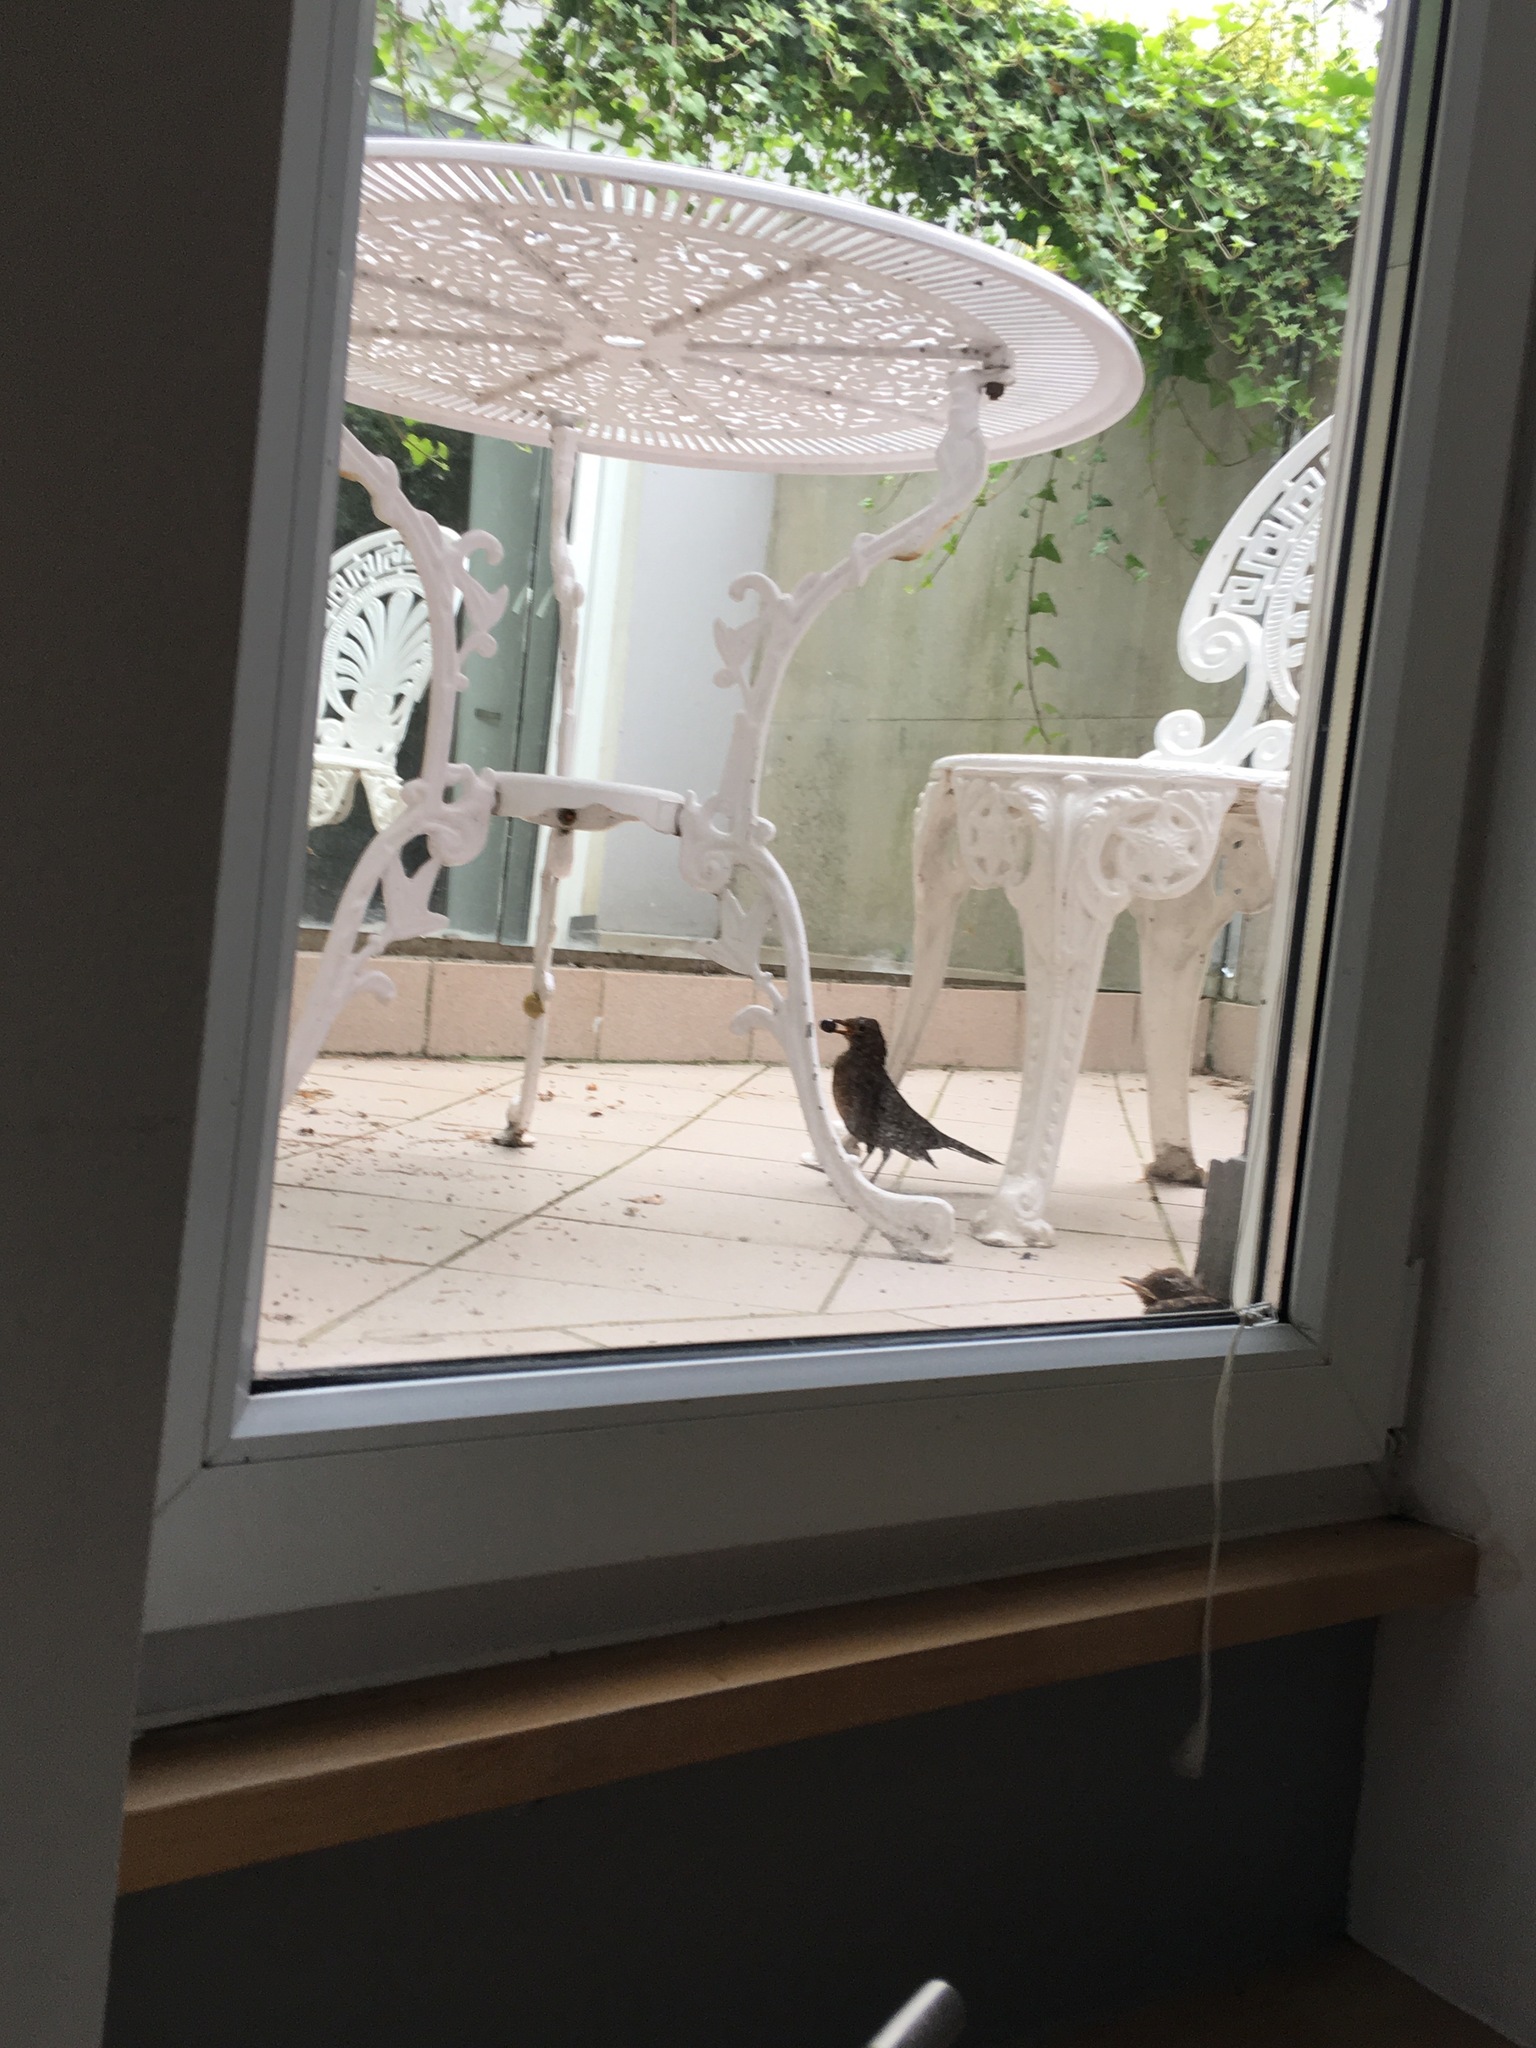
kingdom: Animalia
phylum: Chordata
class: Aves
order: Passeriformes
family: Turdidae
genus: Turdus
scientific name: Turdus merula
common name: Common blackbird
